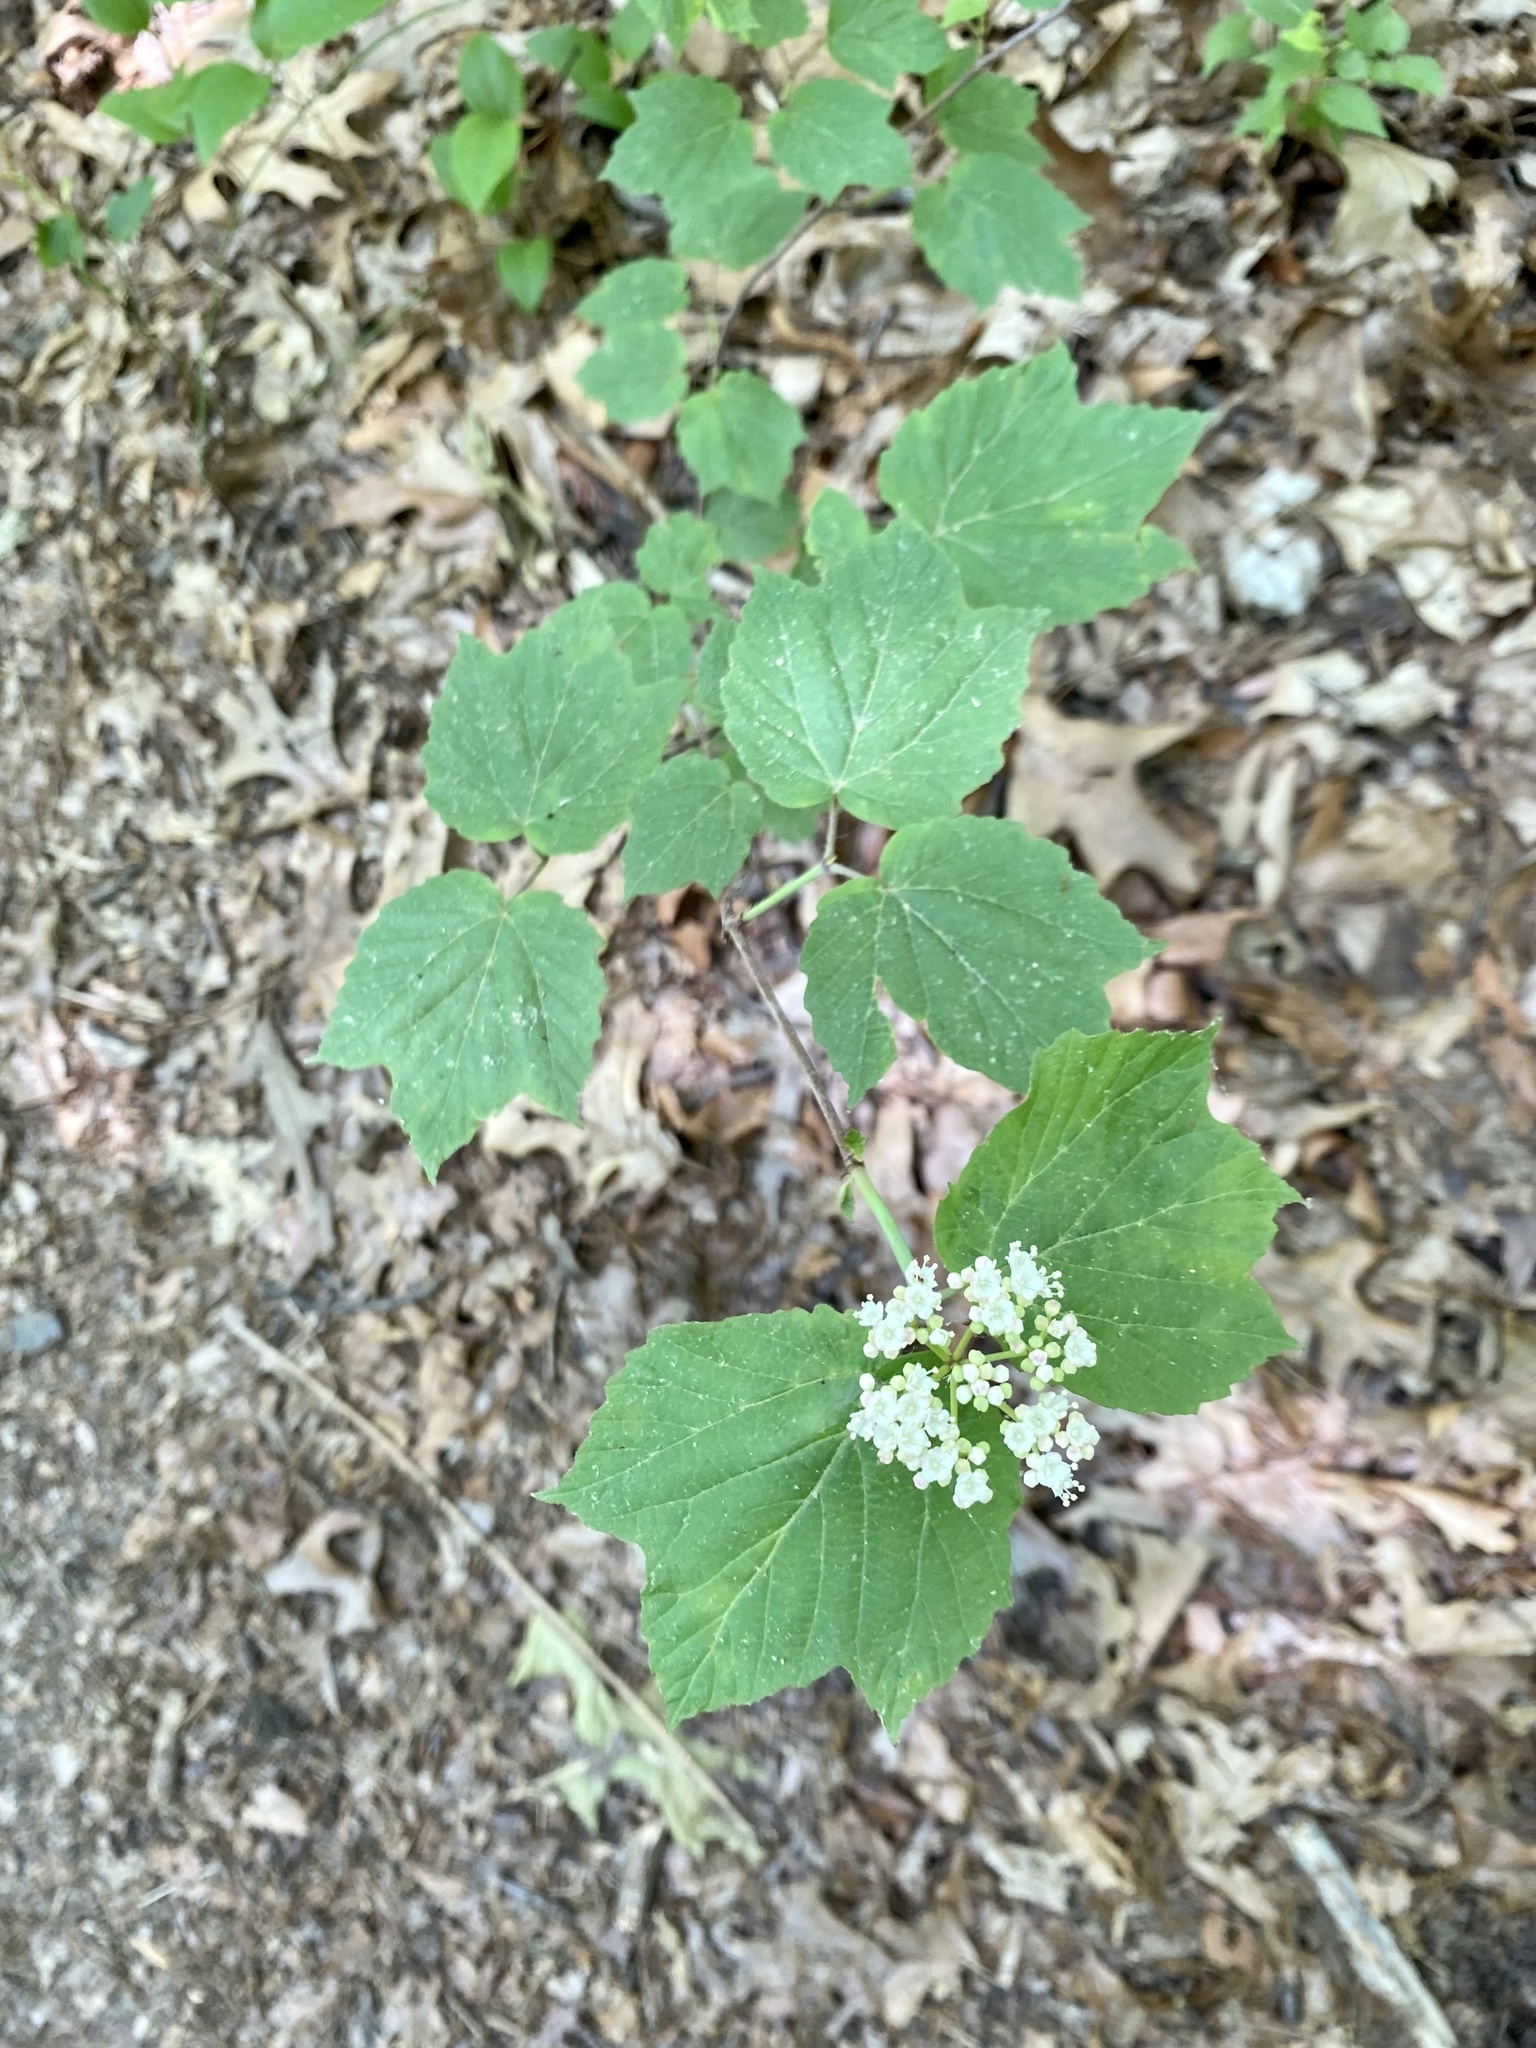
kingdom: Plantae
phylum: Tracheophyta
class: Magnoliopsida
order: Dipsacales
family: Viburnaceae
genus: Viburnum
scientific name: Viburnum acerifolium
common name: Dockmackie
